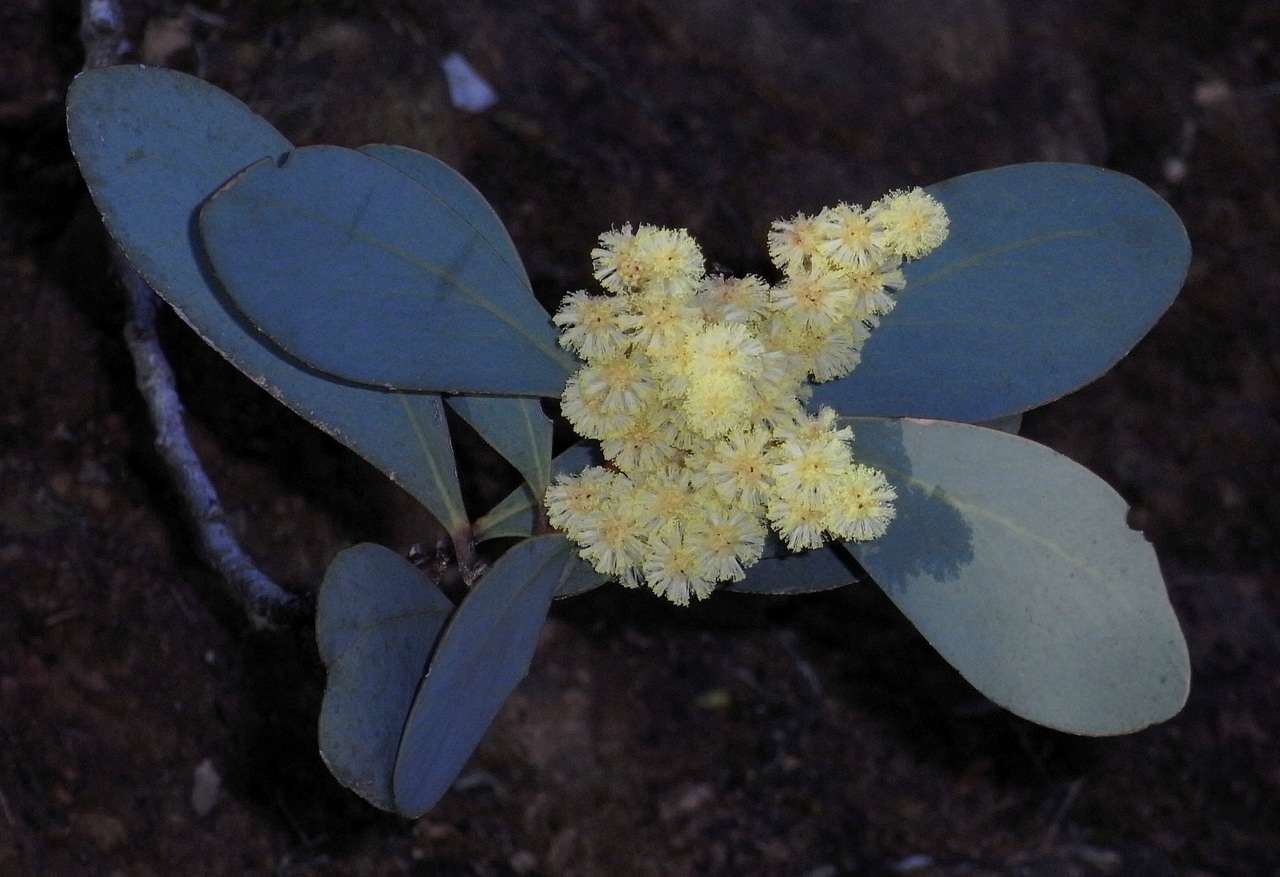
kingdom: Plantae
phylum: Tracheophyta
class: Magnoliopsida
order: Fabales
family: Fabaceae
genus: Acacia
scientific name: Acacia obliquinervia
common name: Mountain hickory wattle
